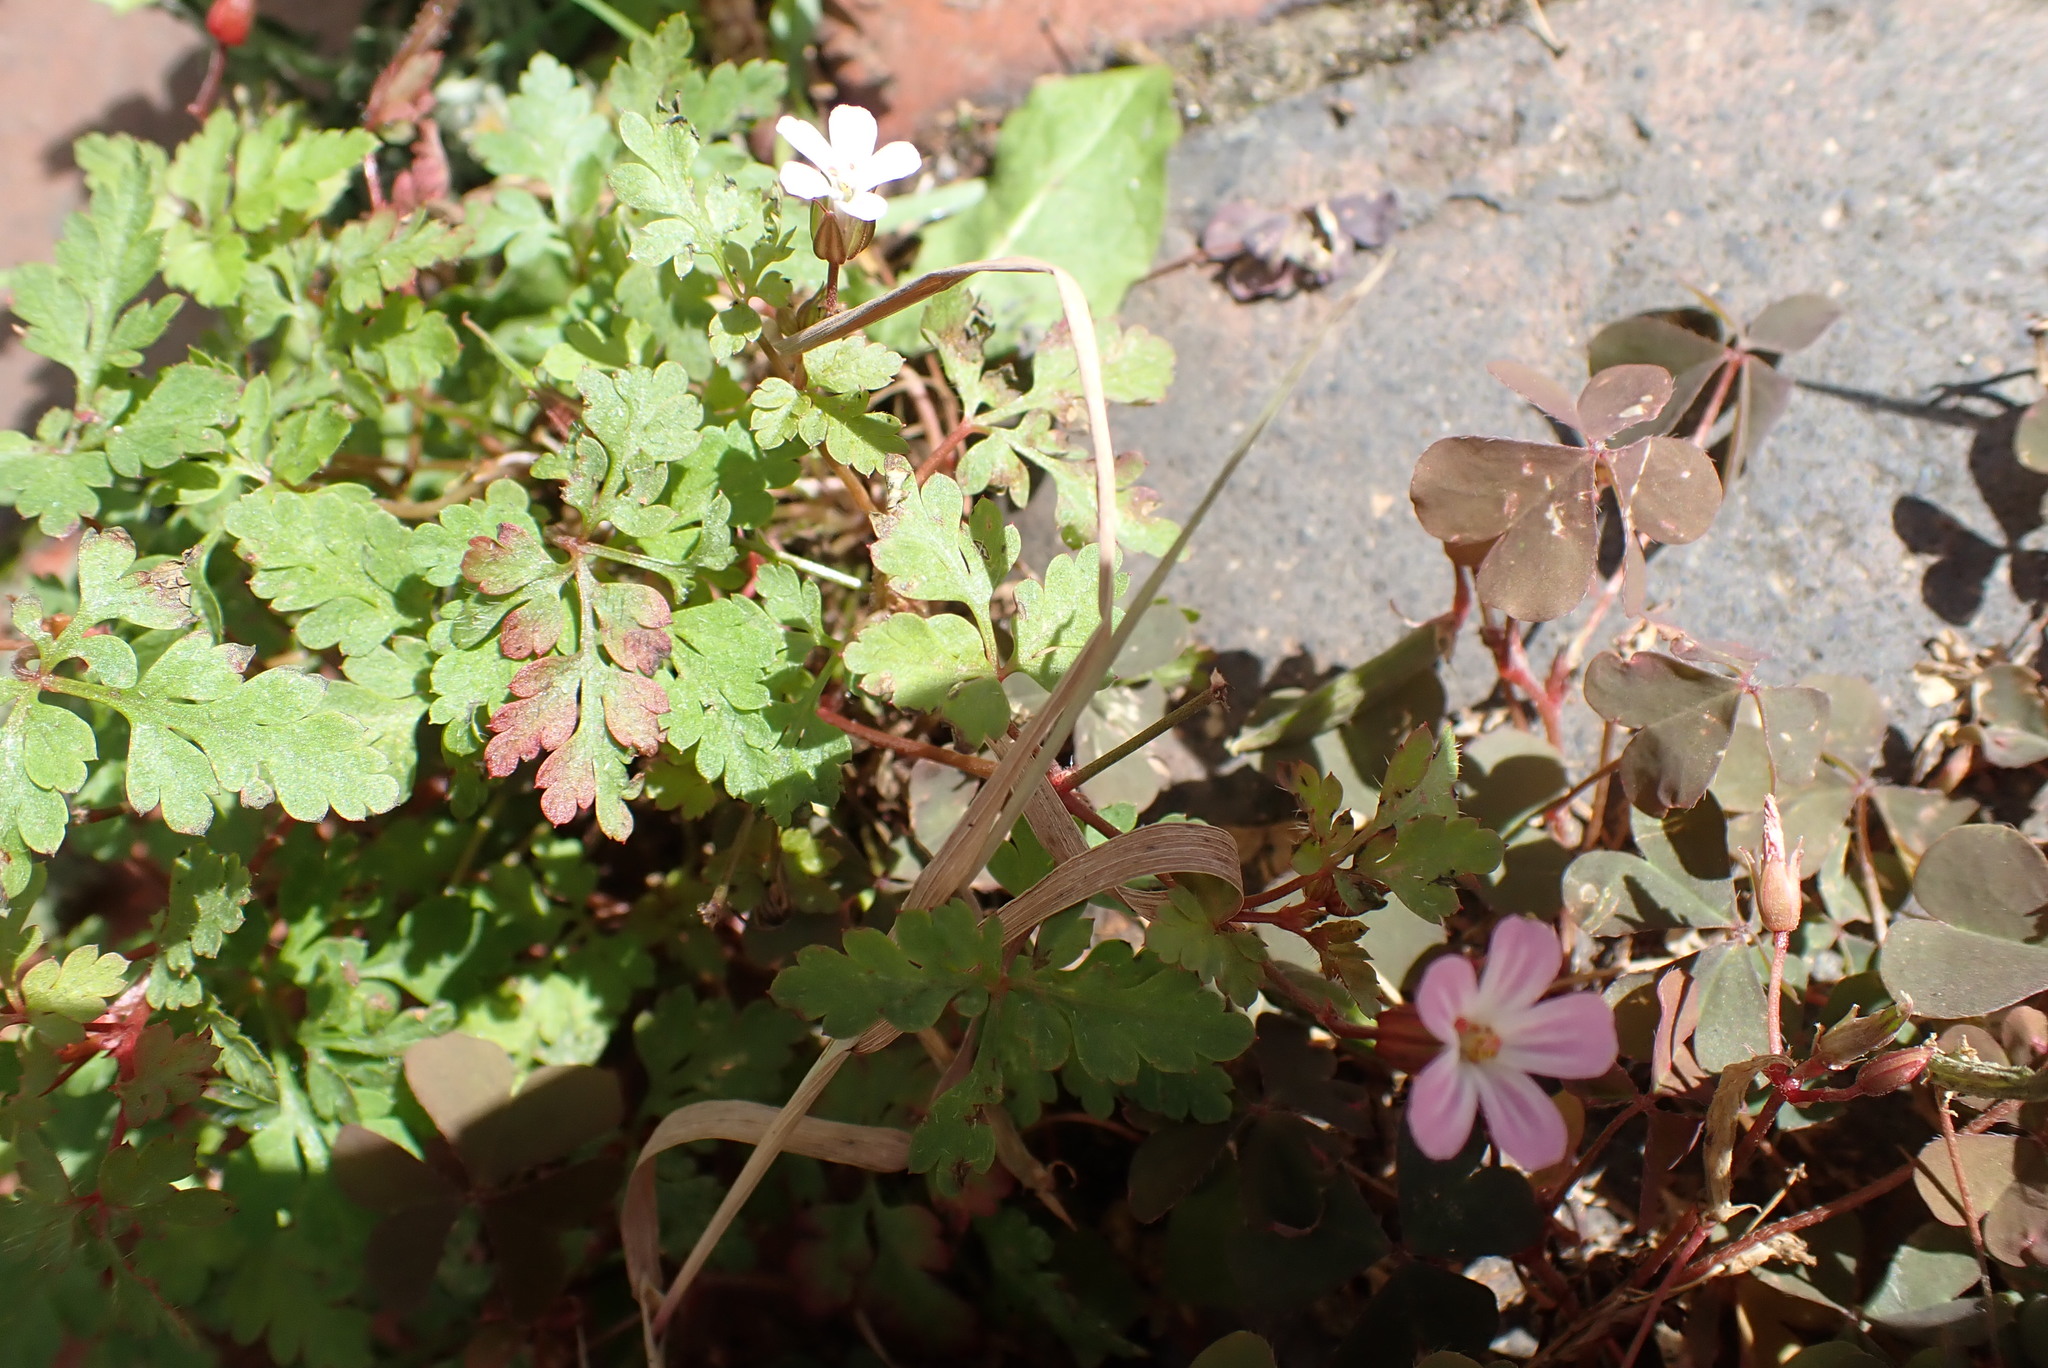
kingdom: Plantae
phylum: Tracheophyta
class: Magnoliopsida
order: Geraniales
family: Geraniaceae
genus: Geranium
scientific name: Geranium robertianum
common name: Herb-robert
